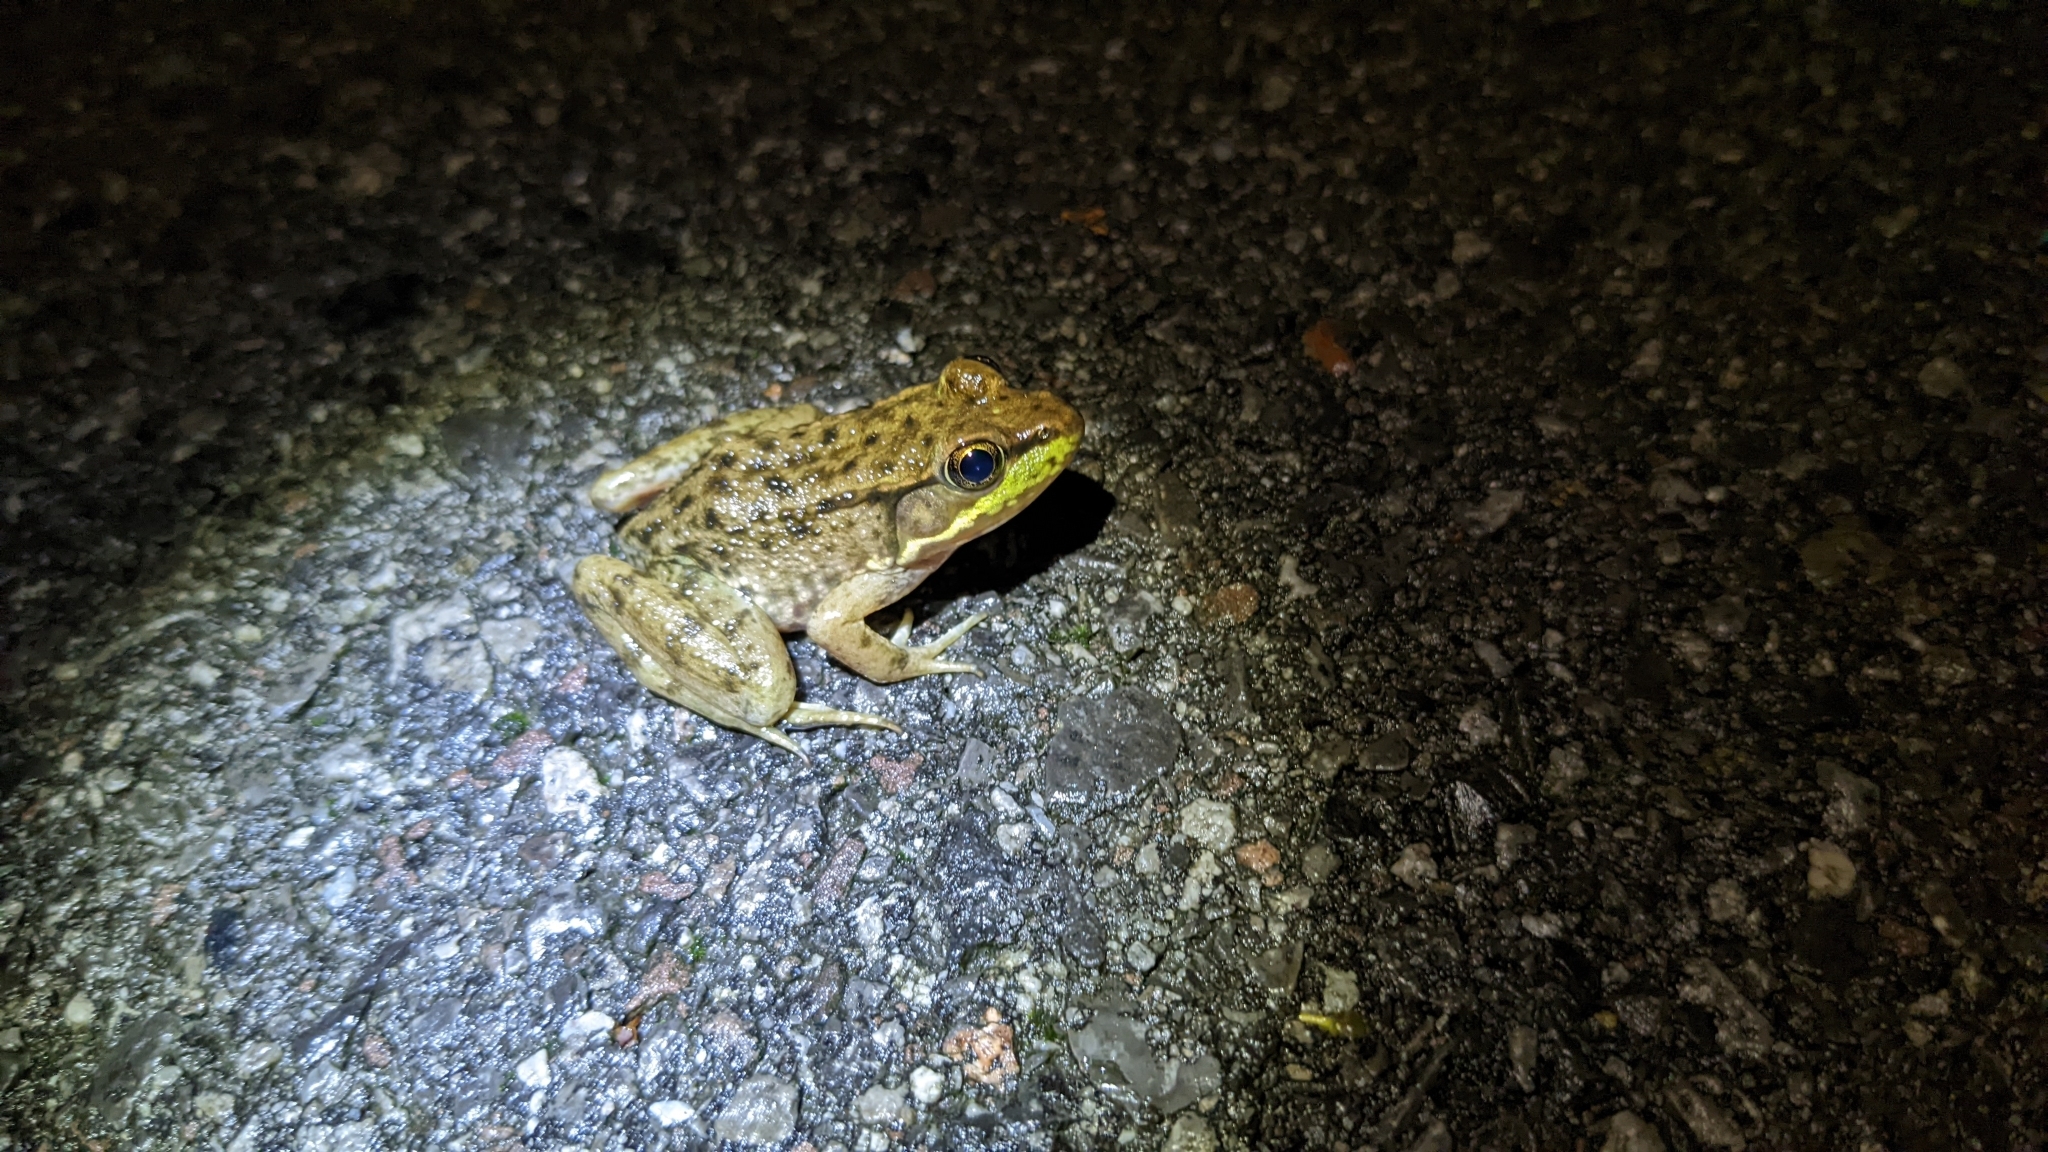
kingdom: Animalia
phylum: Chordata
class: Amphibia
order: Anura
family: Ranidae
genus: Lithobates
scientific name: Lithobates clamitans
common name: Green frog
